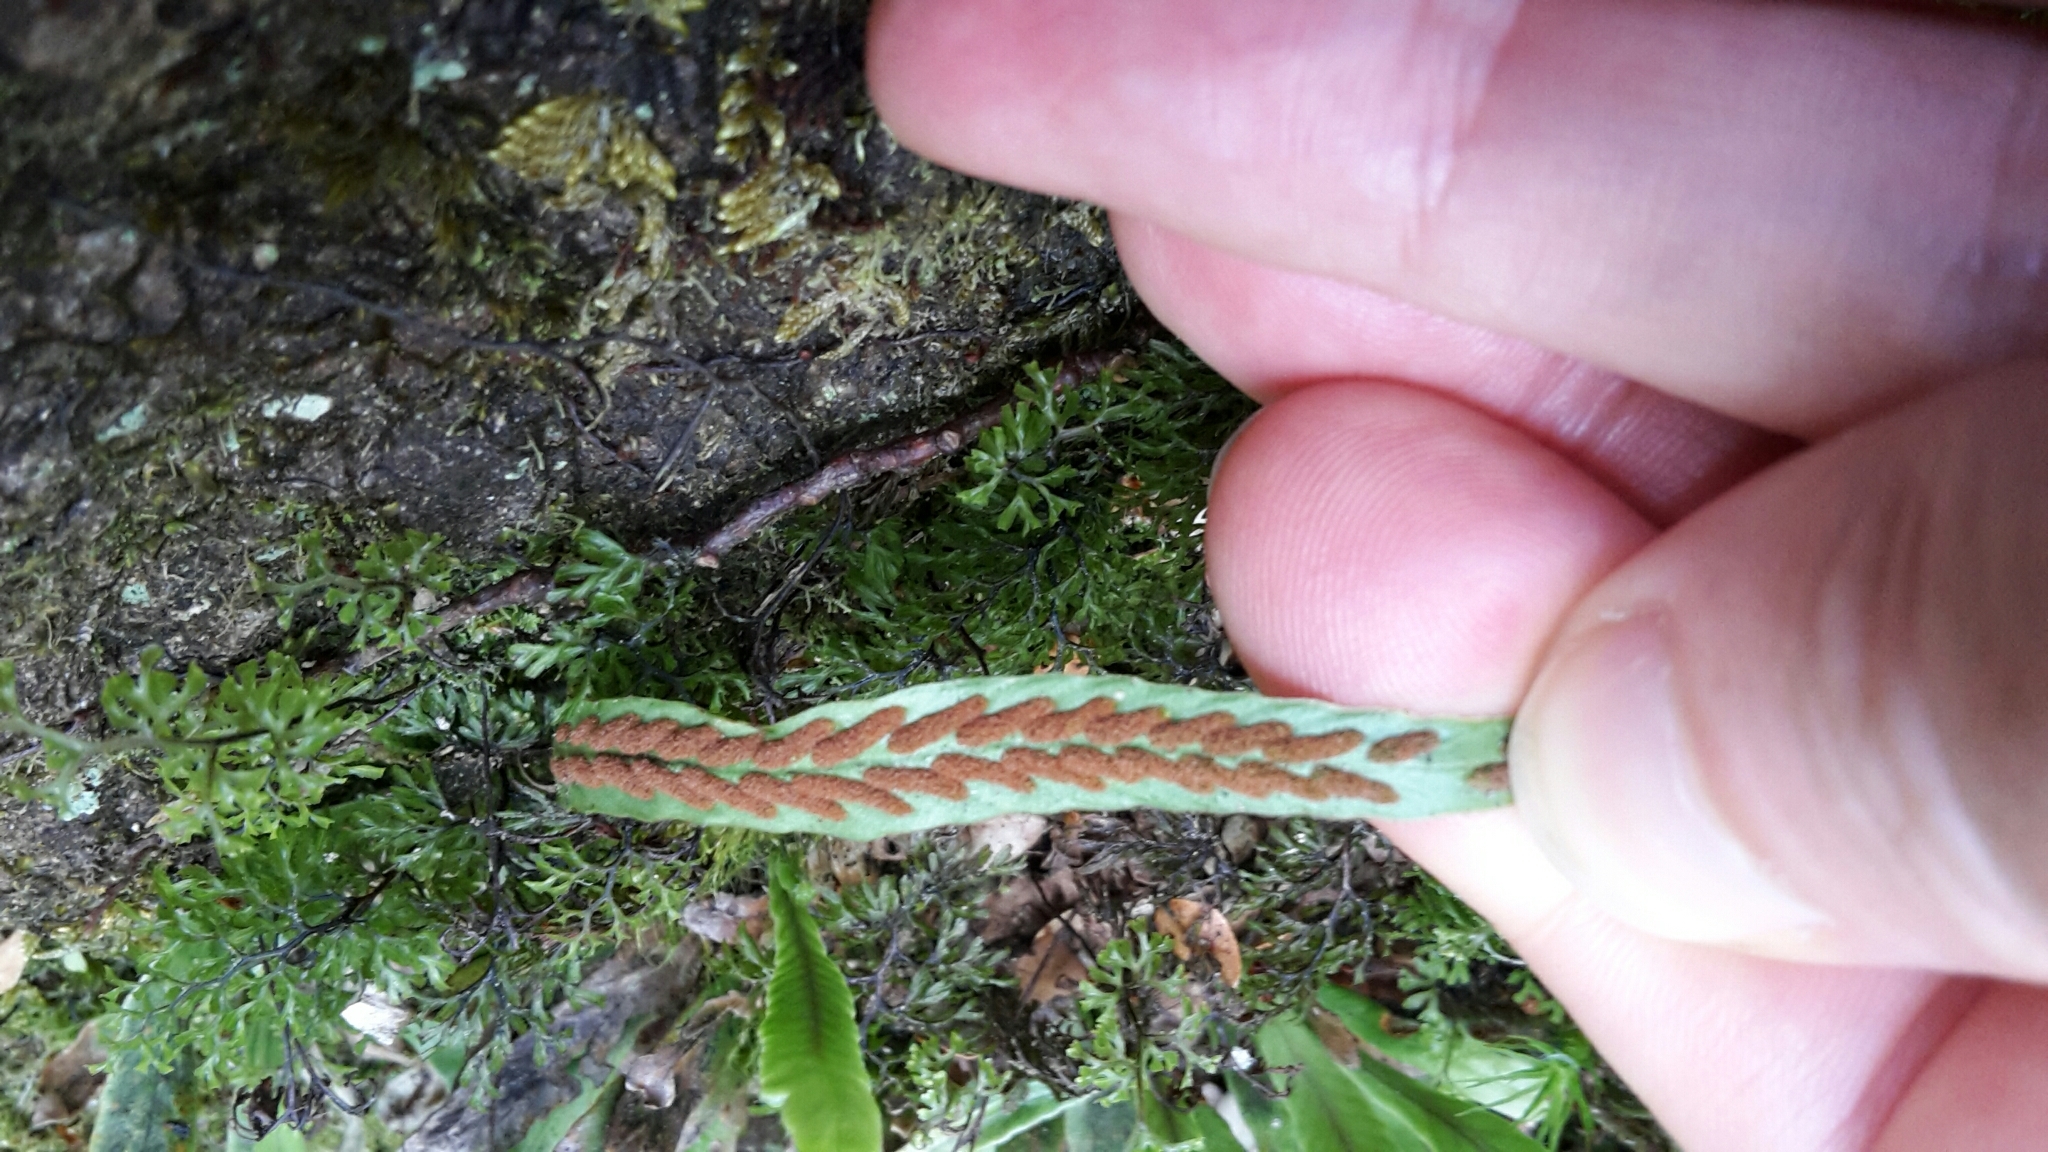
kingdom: Plantae
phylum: Tracheophyta
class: Polypodiopsida
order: Polypodiales
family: Polypodiaceae
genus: Notogrammitis
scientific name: Notogrammitis billardierei
